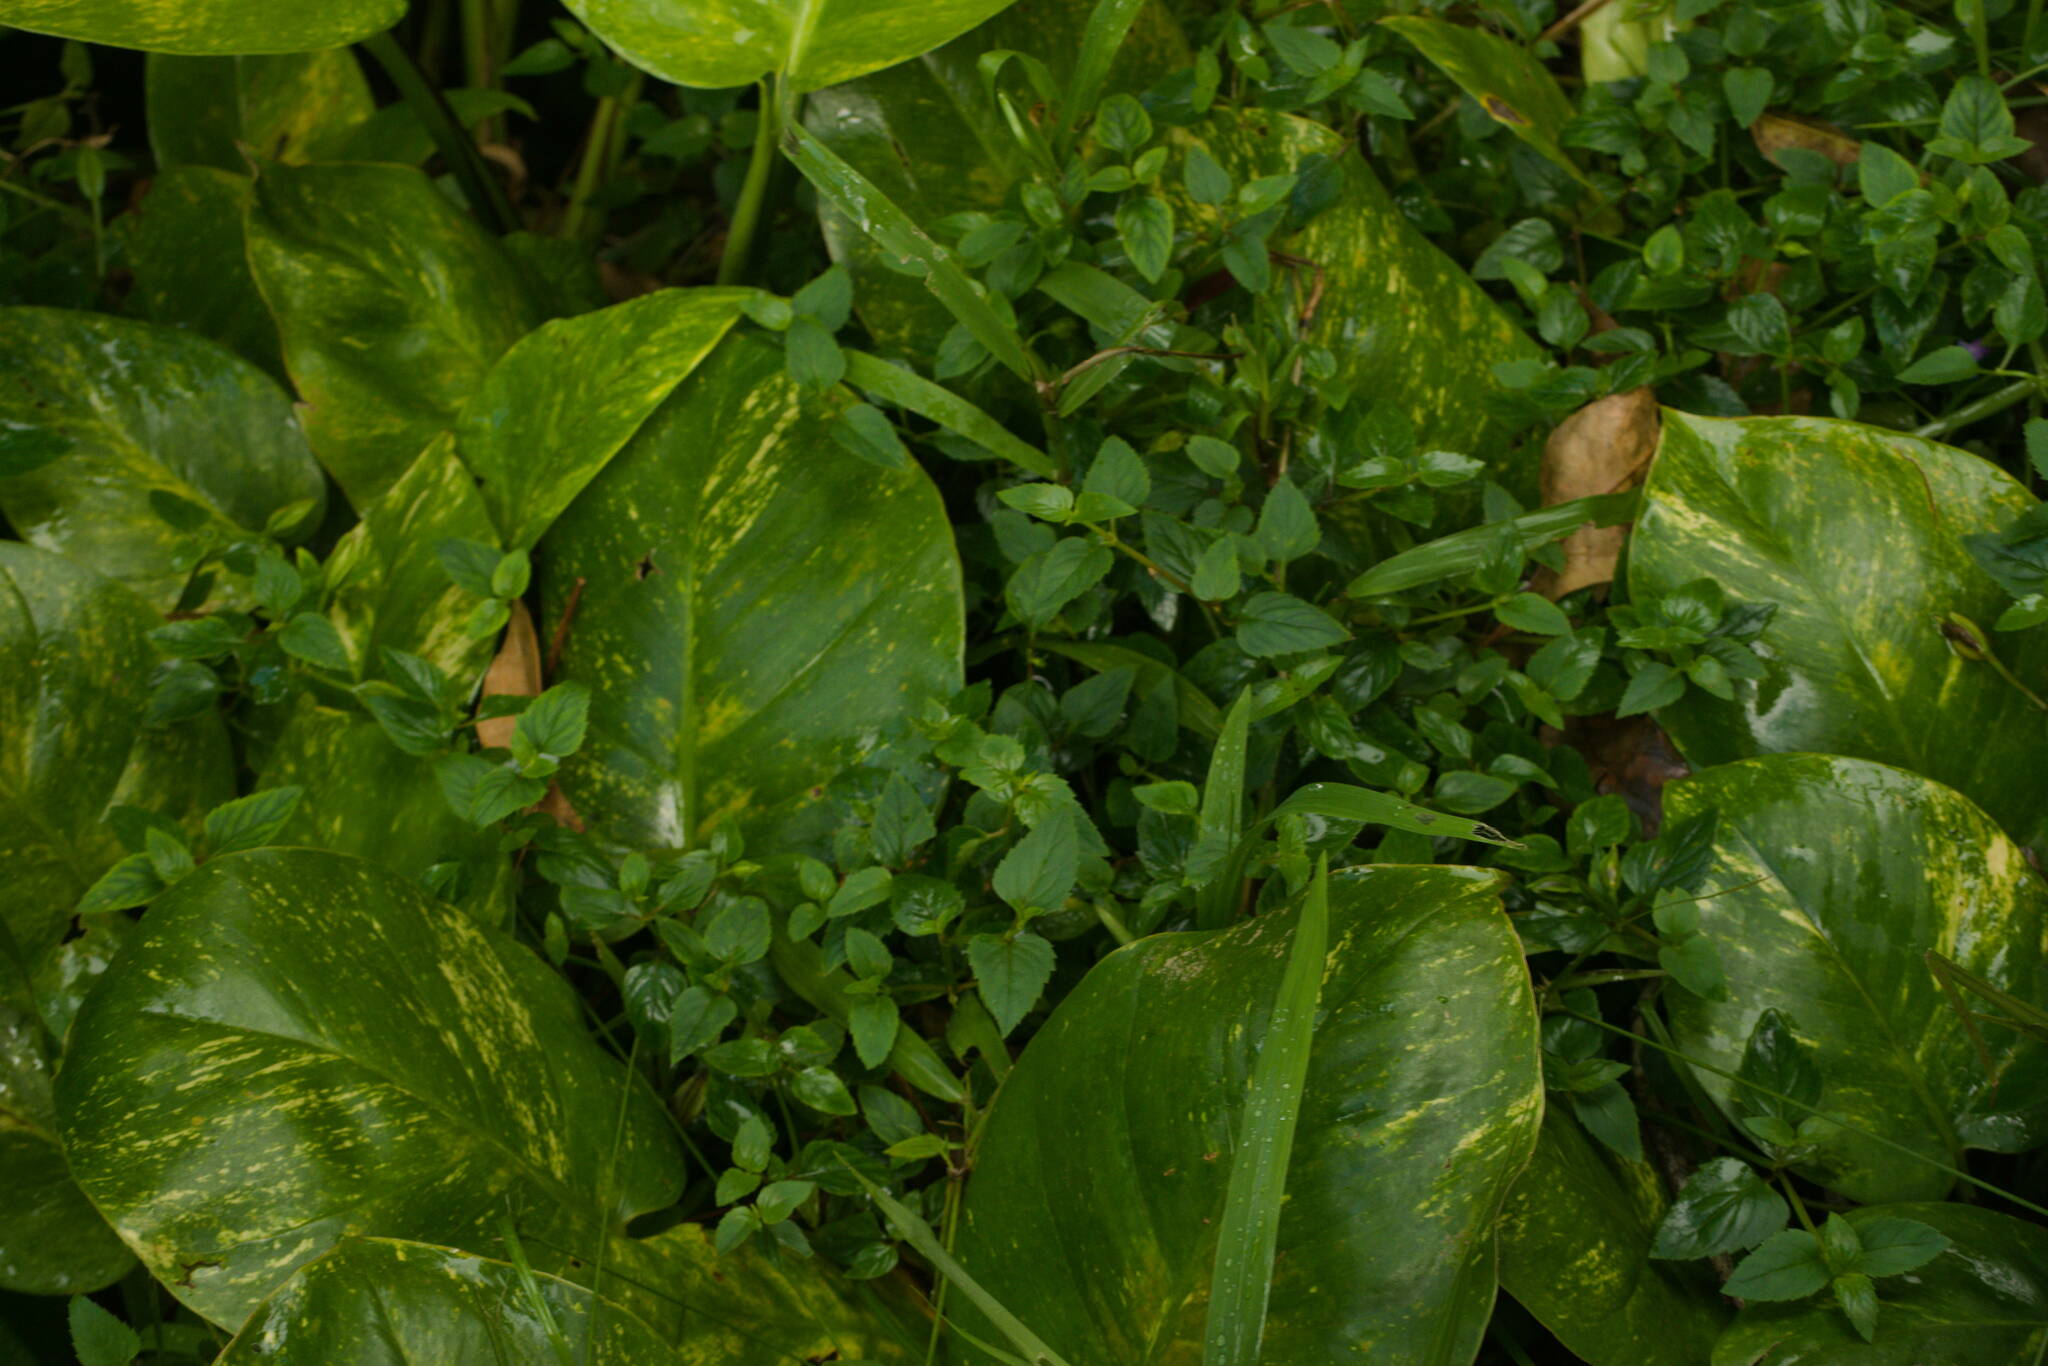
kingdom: Plantae
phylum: Tracheophyta
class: Magnoliopsida
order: Lamiales
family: Linderniaceae
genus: Torenia
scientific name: Torenia asiatica
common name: Wishbone flower
